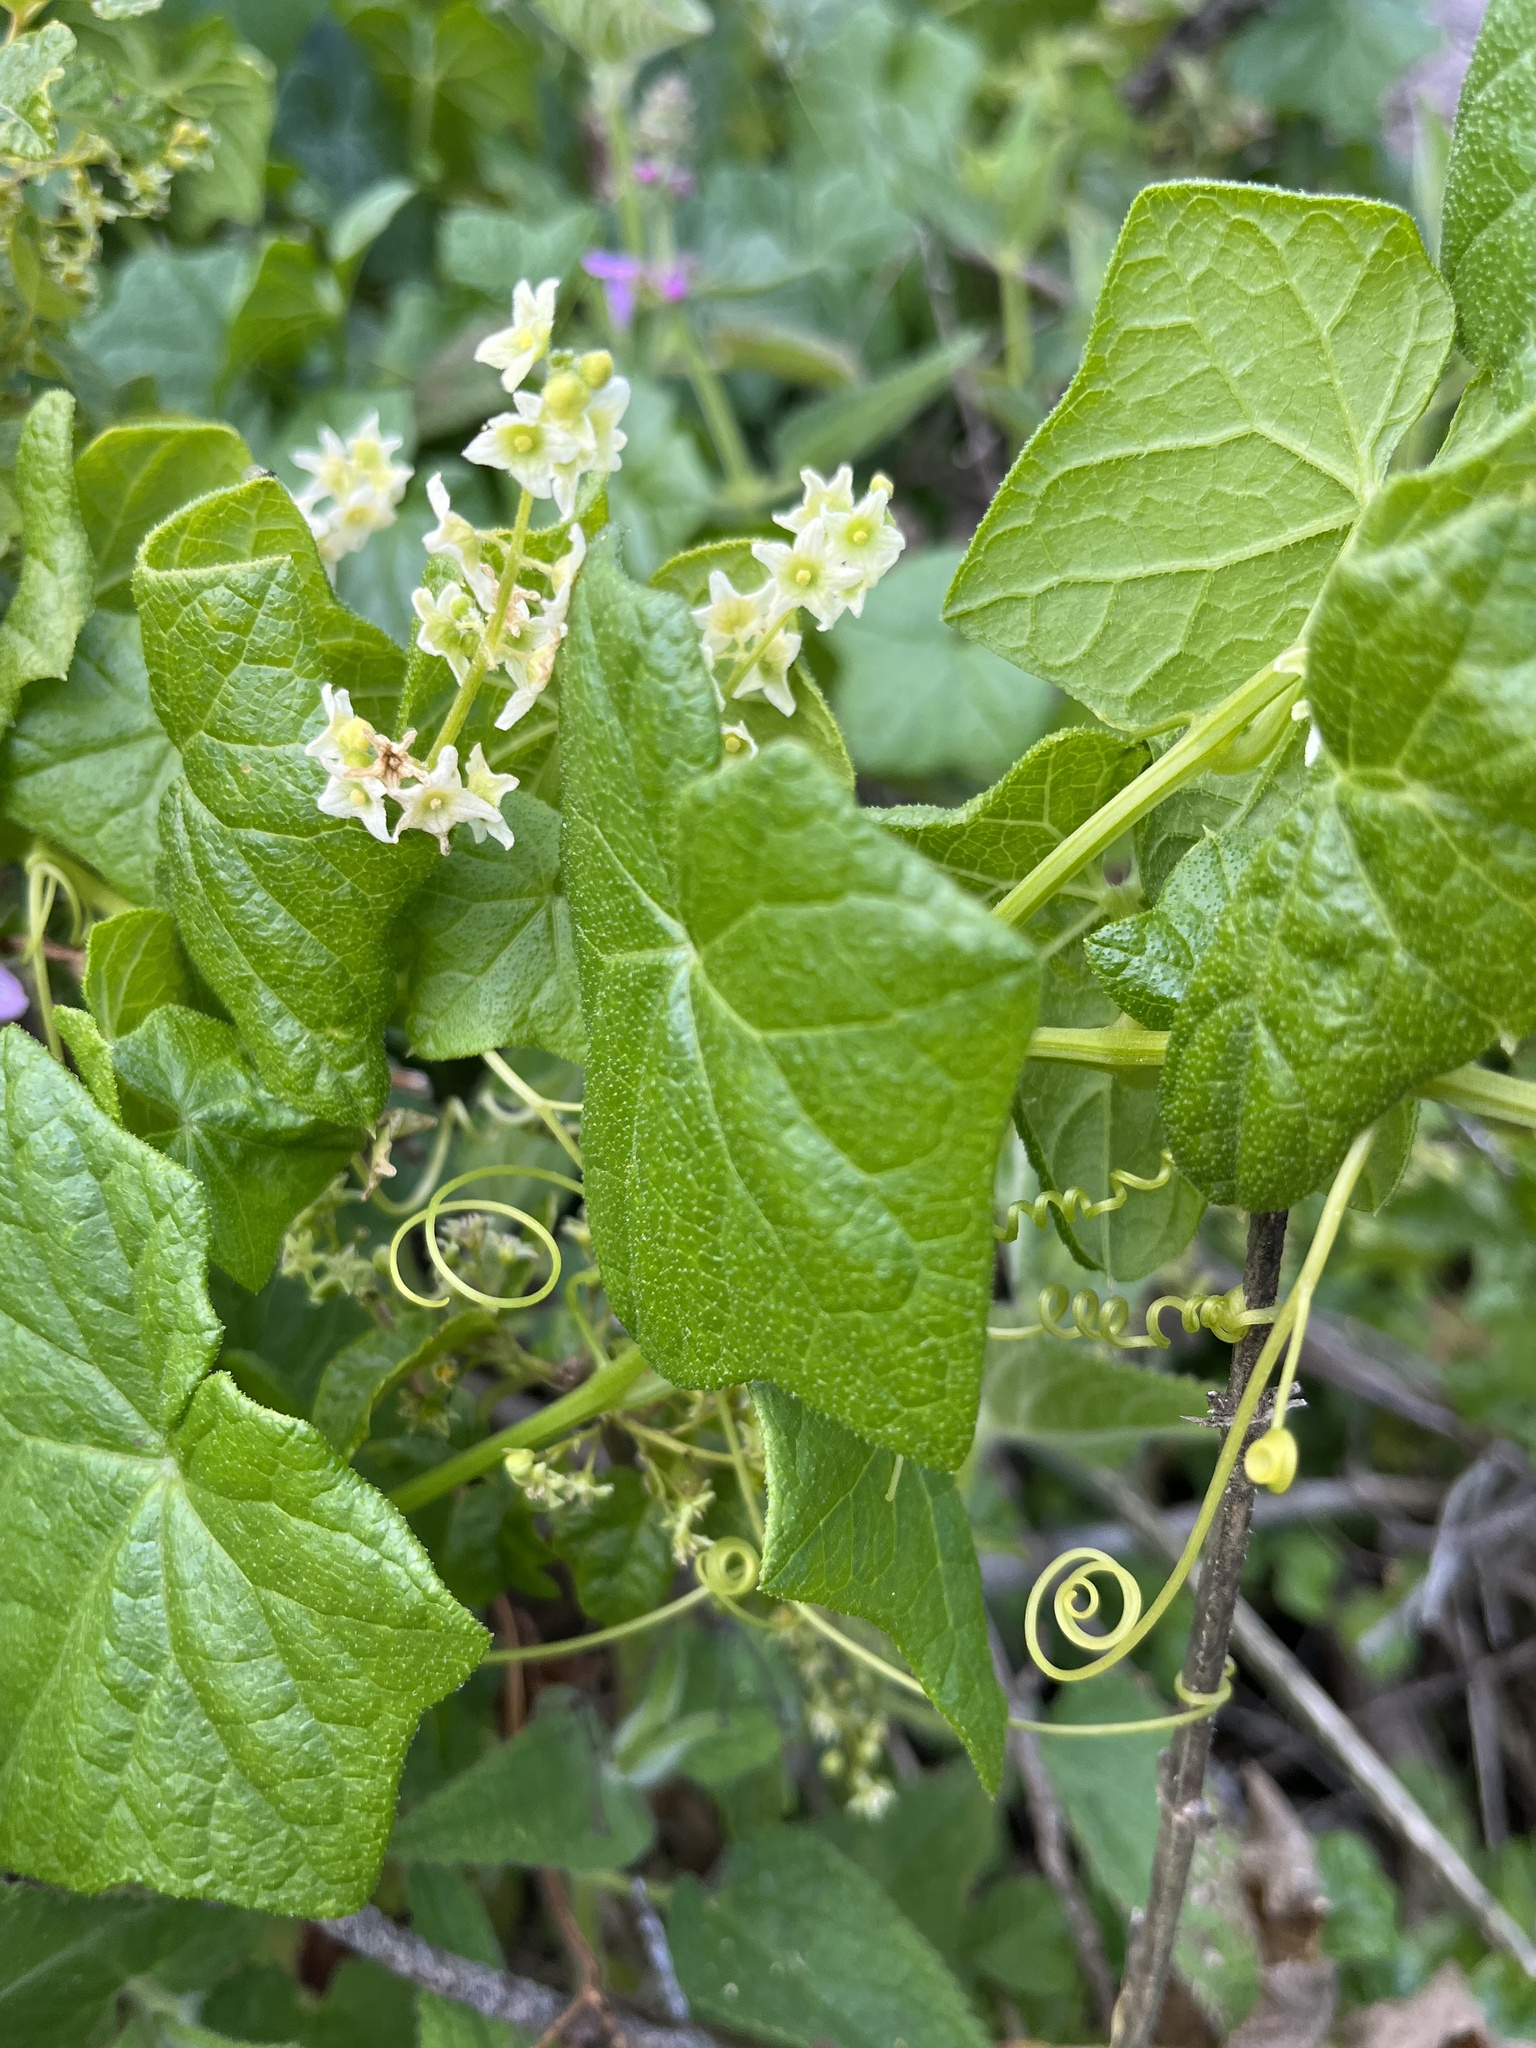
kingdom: Plantae
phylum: Tracheophyta
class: Magnoliopsida
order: Cucurbitales
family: Cucurbitaceae
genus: Marah
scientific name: Marah fabacea
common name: California manroot
